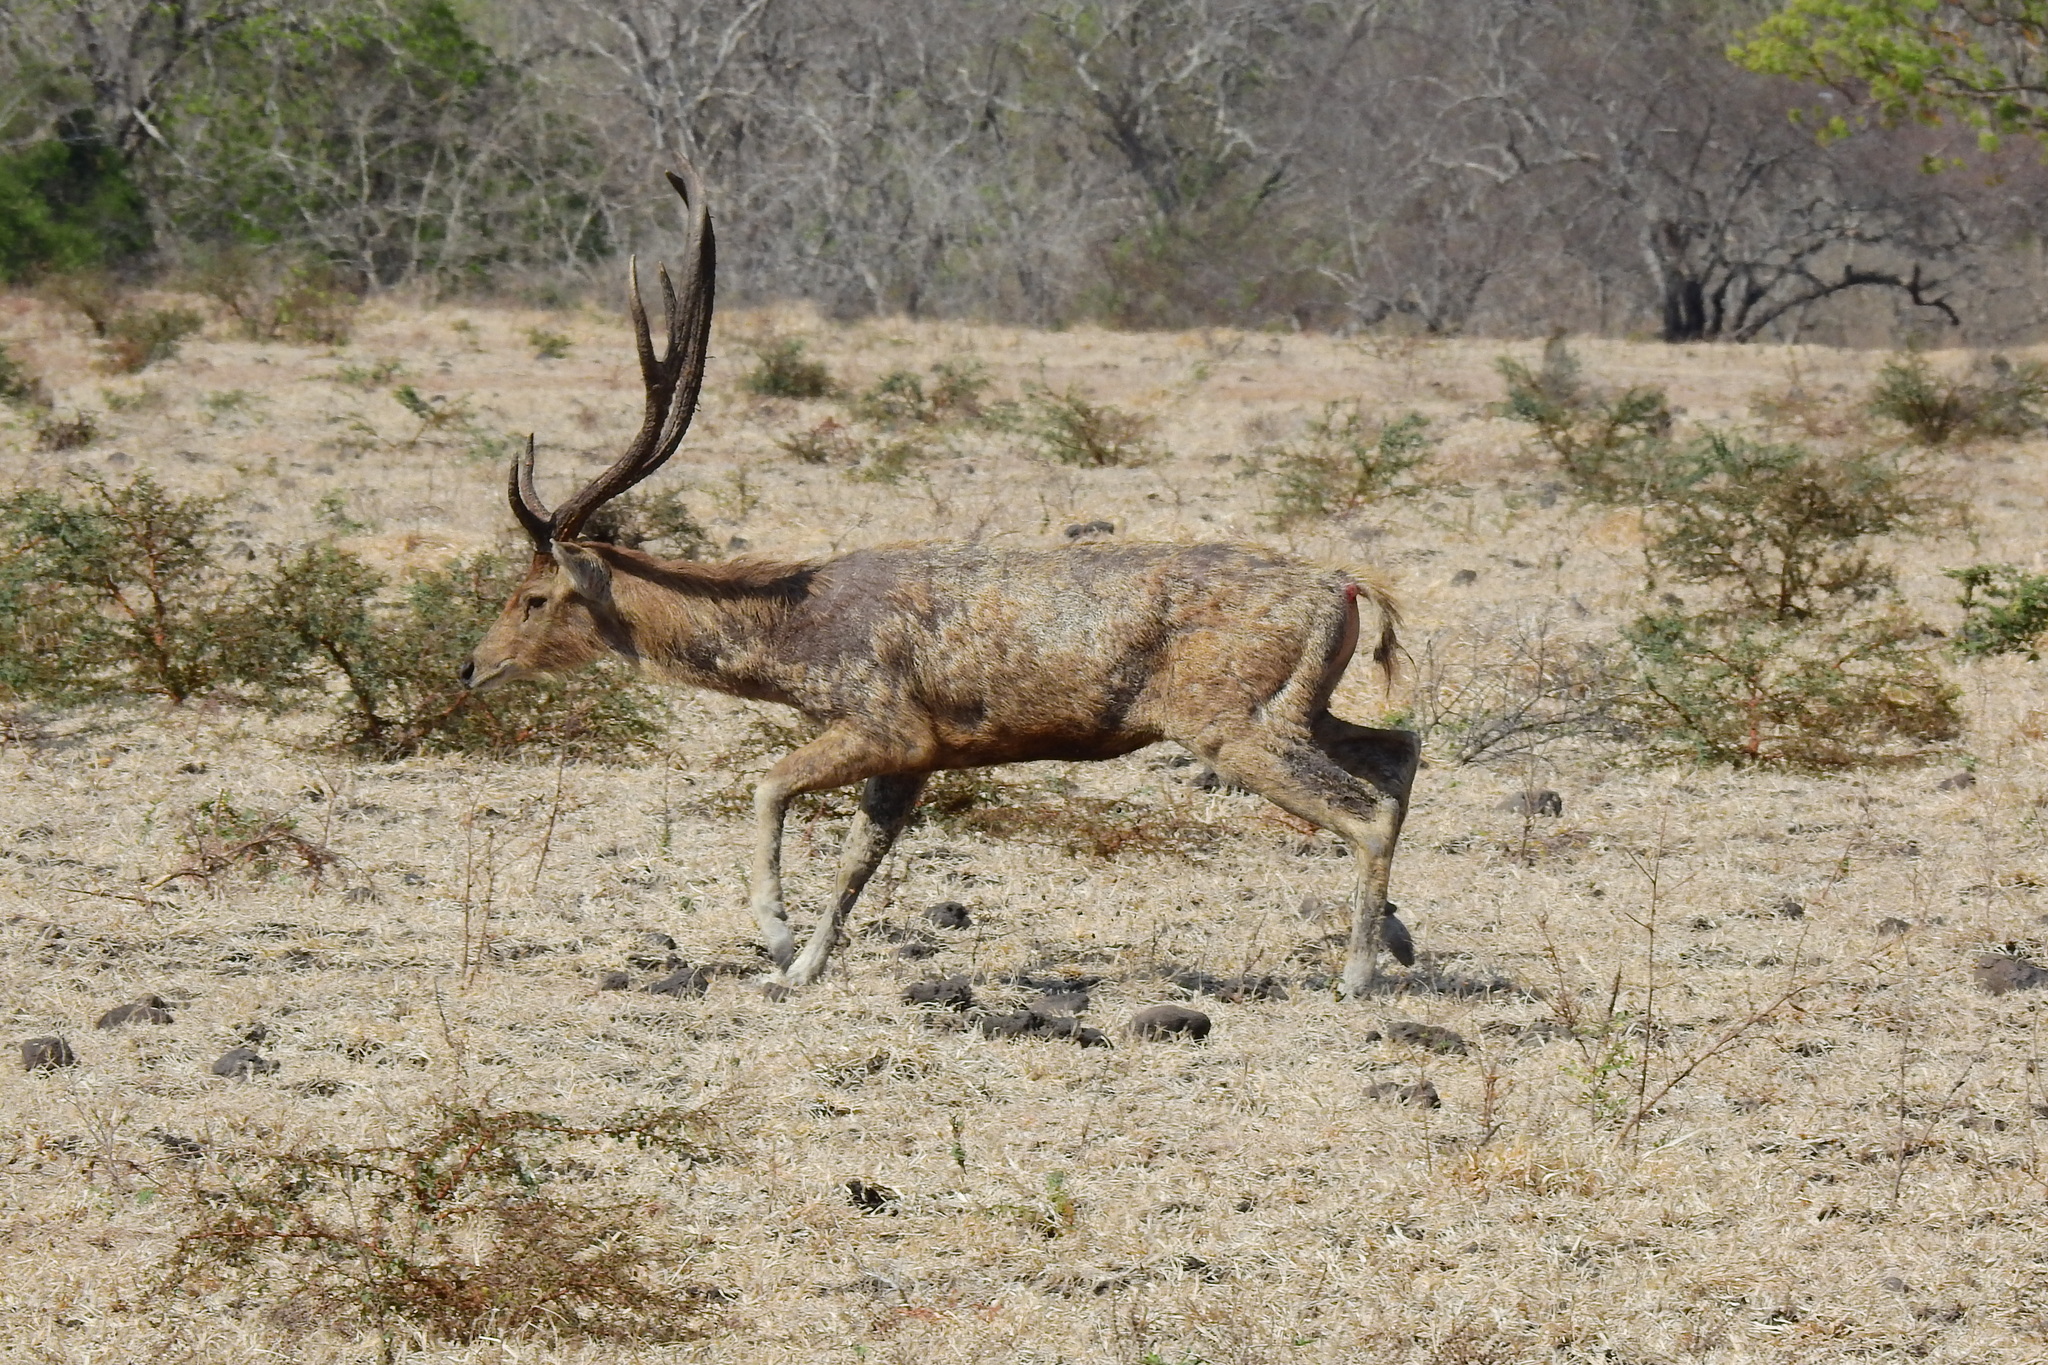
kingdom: Animalia
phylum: Chordata
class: Mammalia
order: Artiodactyla
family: Cervidae
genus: Rusa
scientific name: Rusa timorensis
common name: Javan rusa
